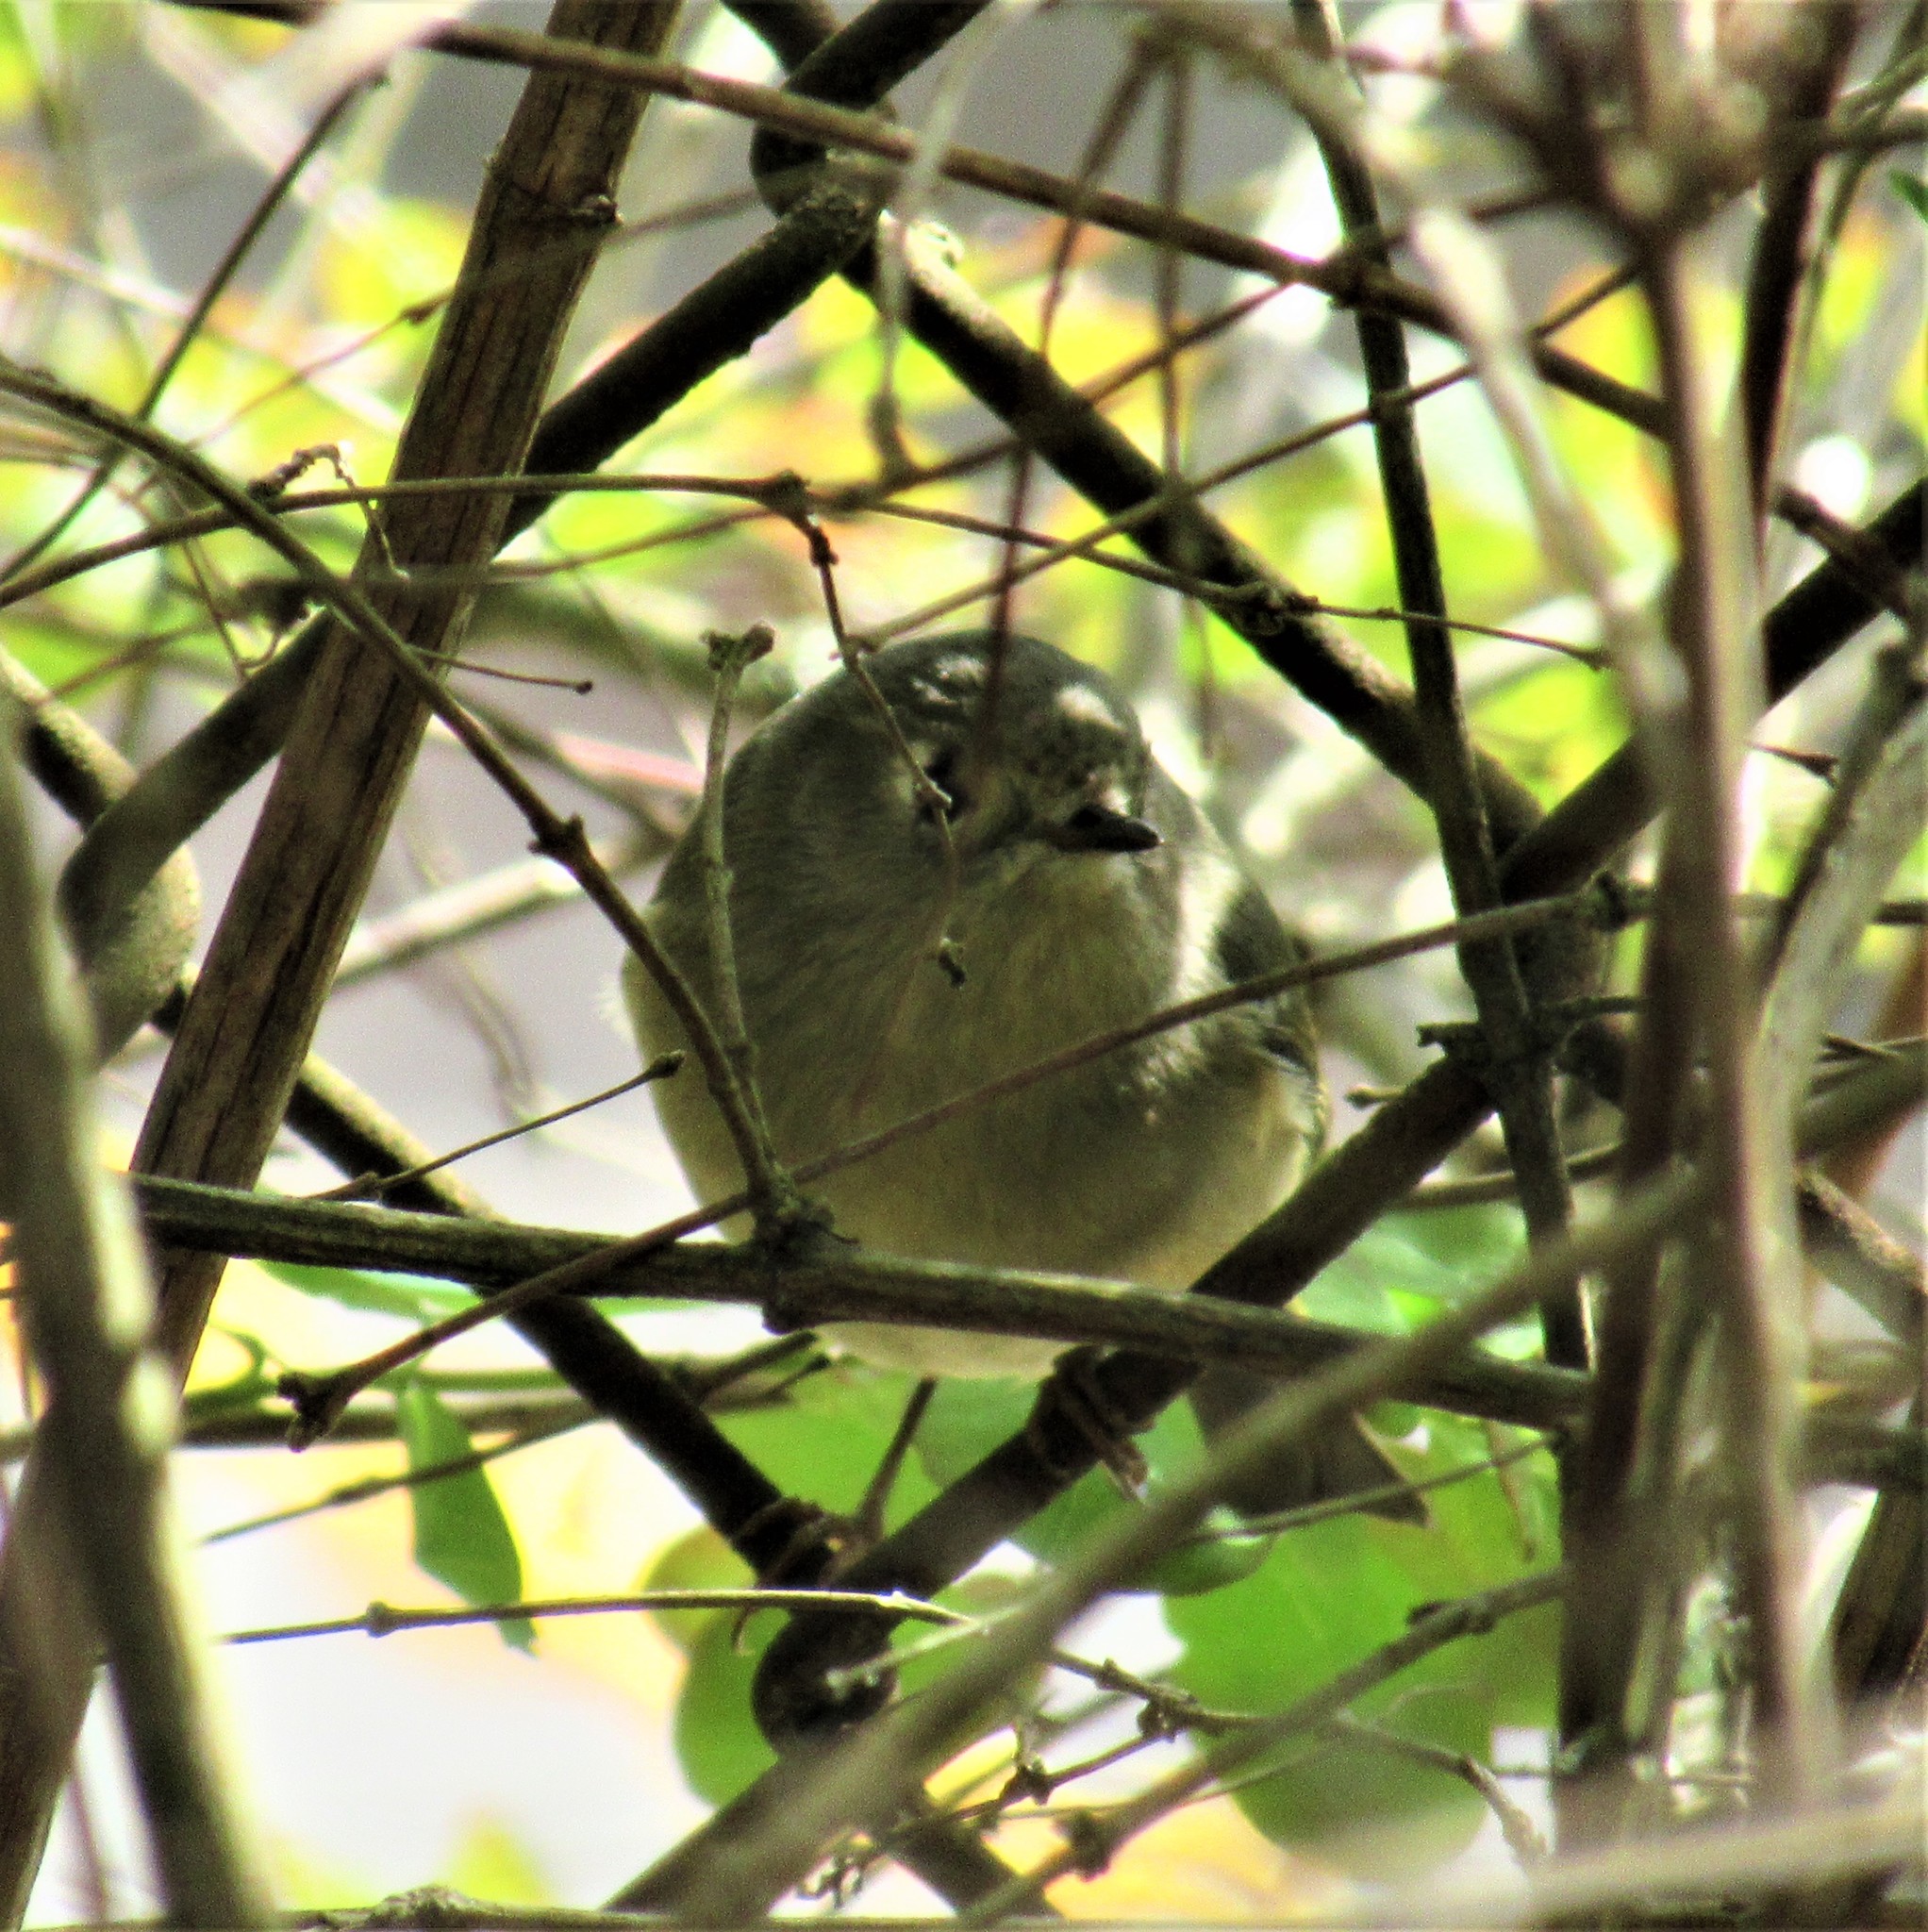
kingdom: Animalia
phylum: Chordata
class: Aves
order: Passeriformes
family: Regulidae
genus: Regulus
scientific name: Regulus calendula
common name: Ruby-crowned kinglet
